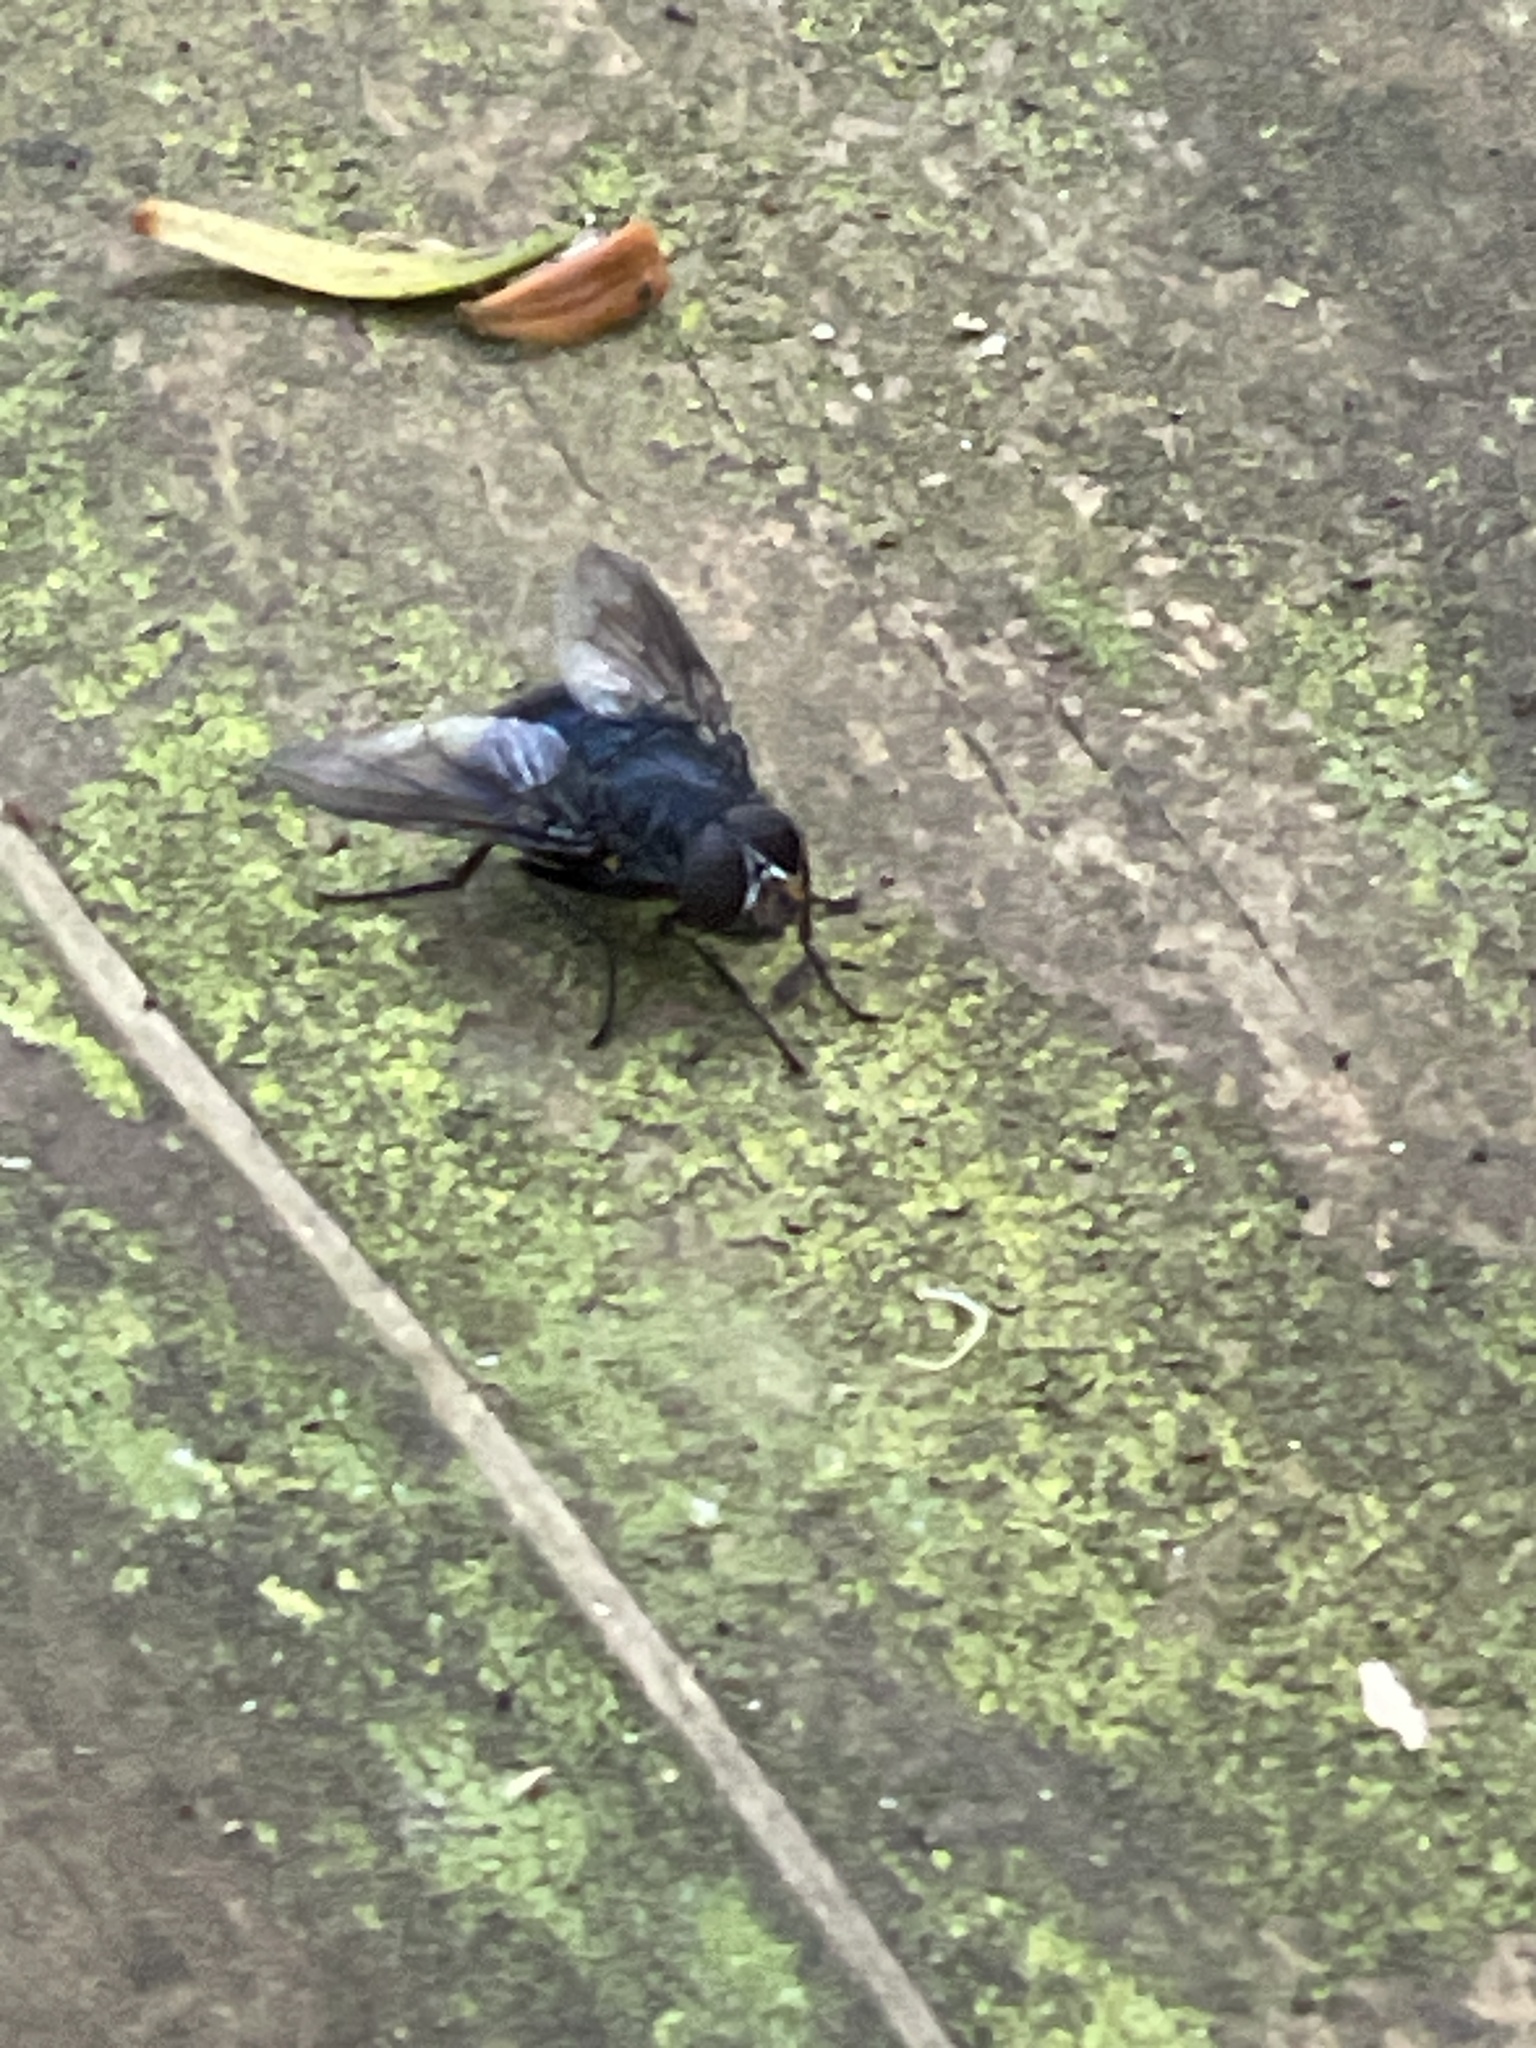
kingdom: Animalia
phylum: Arthropoda
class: Insecta
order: Diptera
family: Calliphoridae
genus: Calliphora
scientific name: Calliphora quadrimaculata
